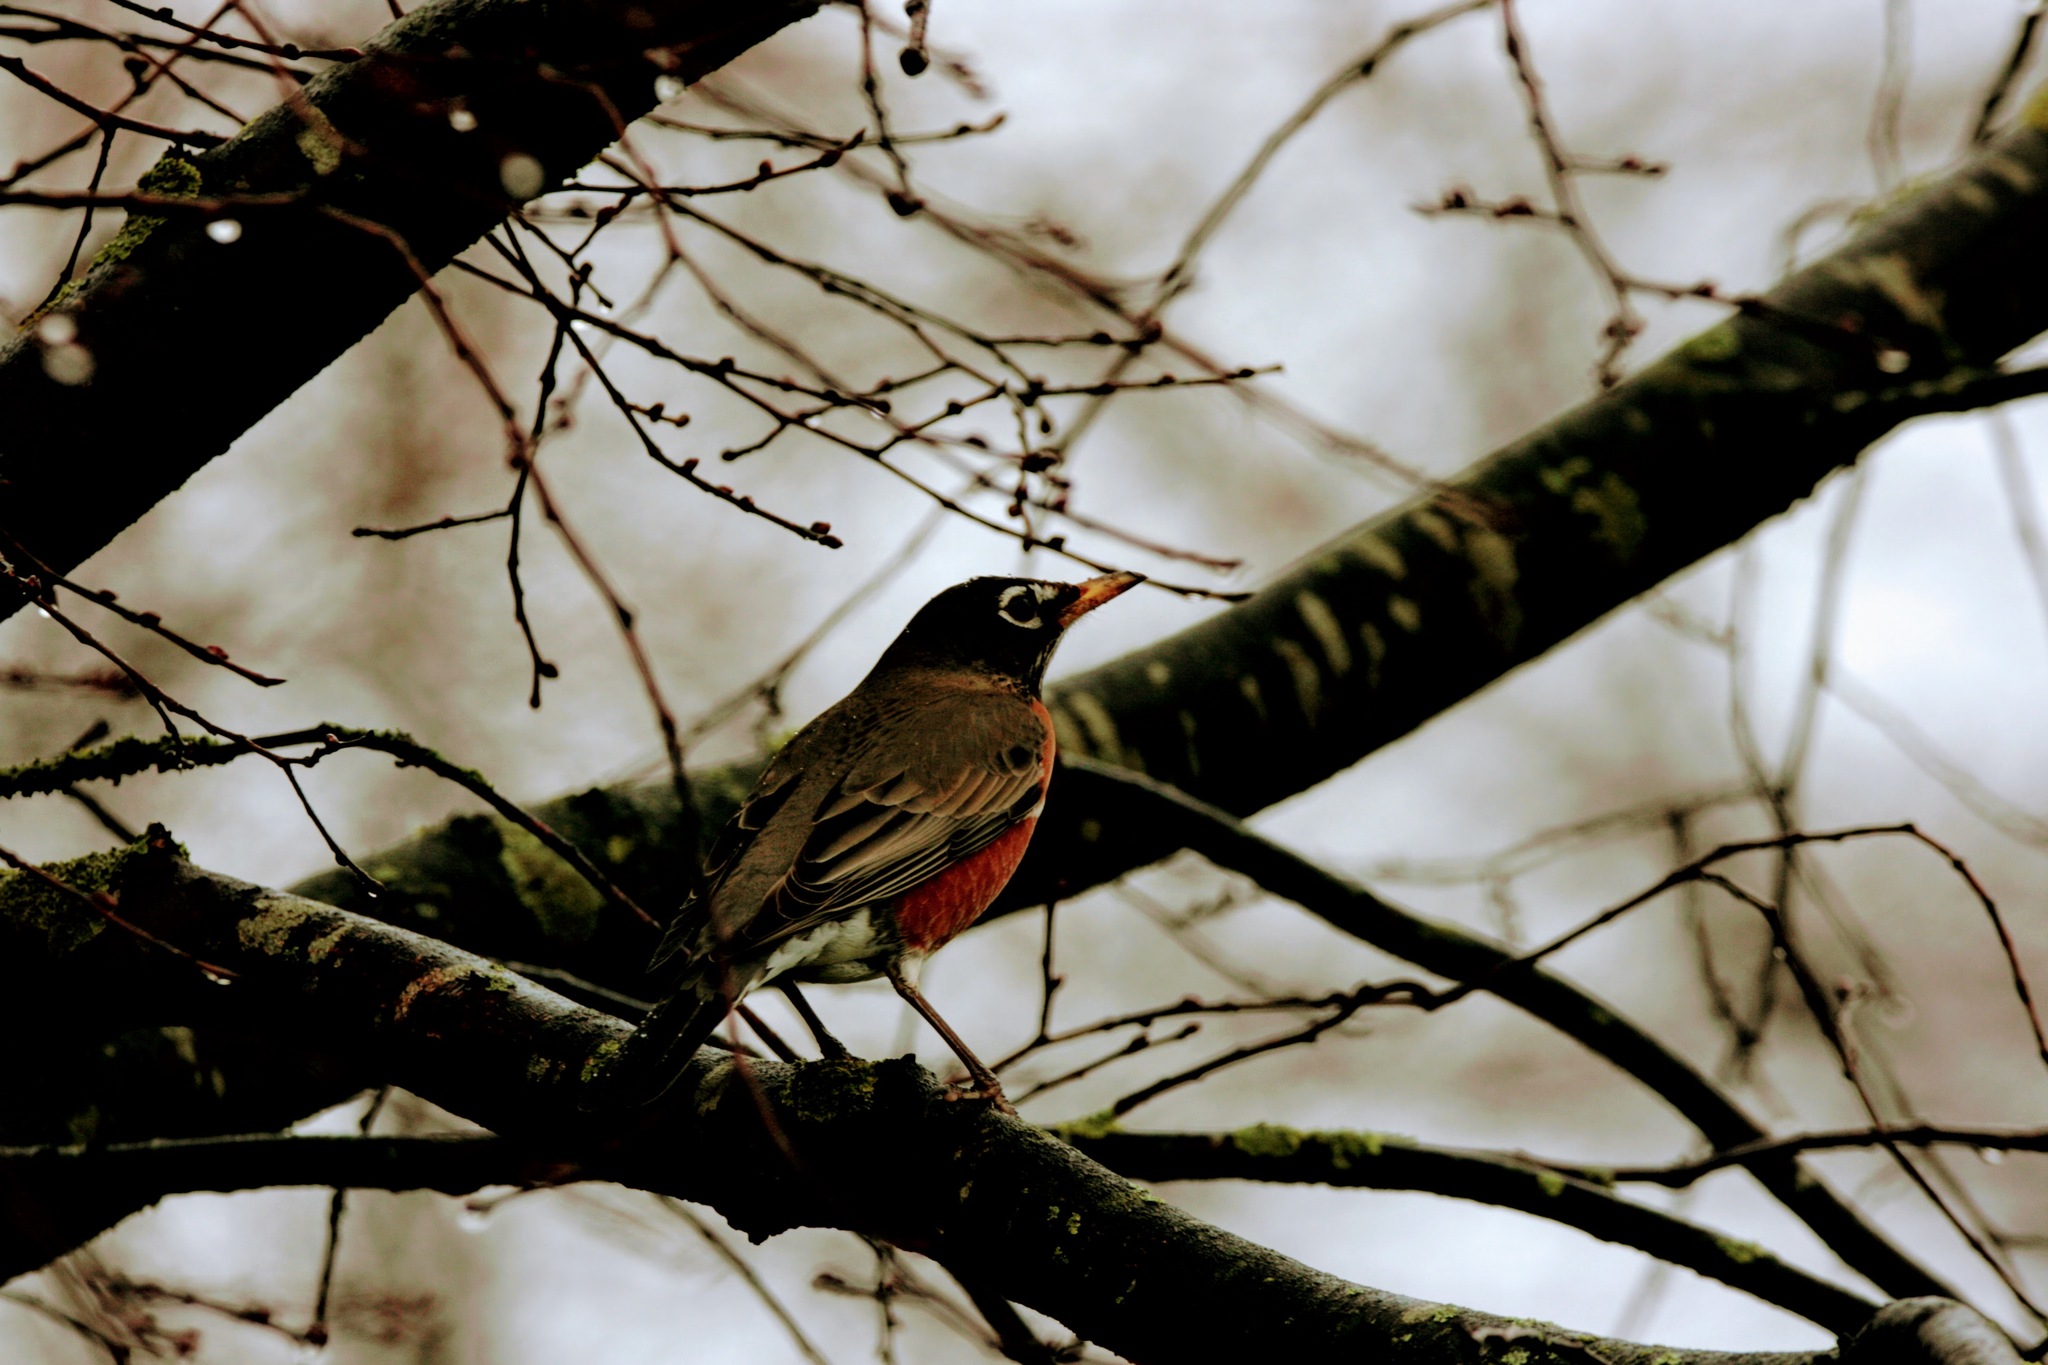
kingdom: Animalia
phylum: Chordata
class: Aves
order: Passeriformes
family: Turdidae
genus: Turdus
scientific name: Turdus migratorius
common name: American robin
